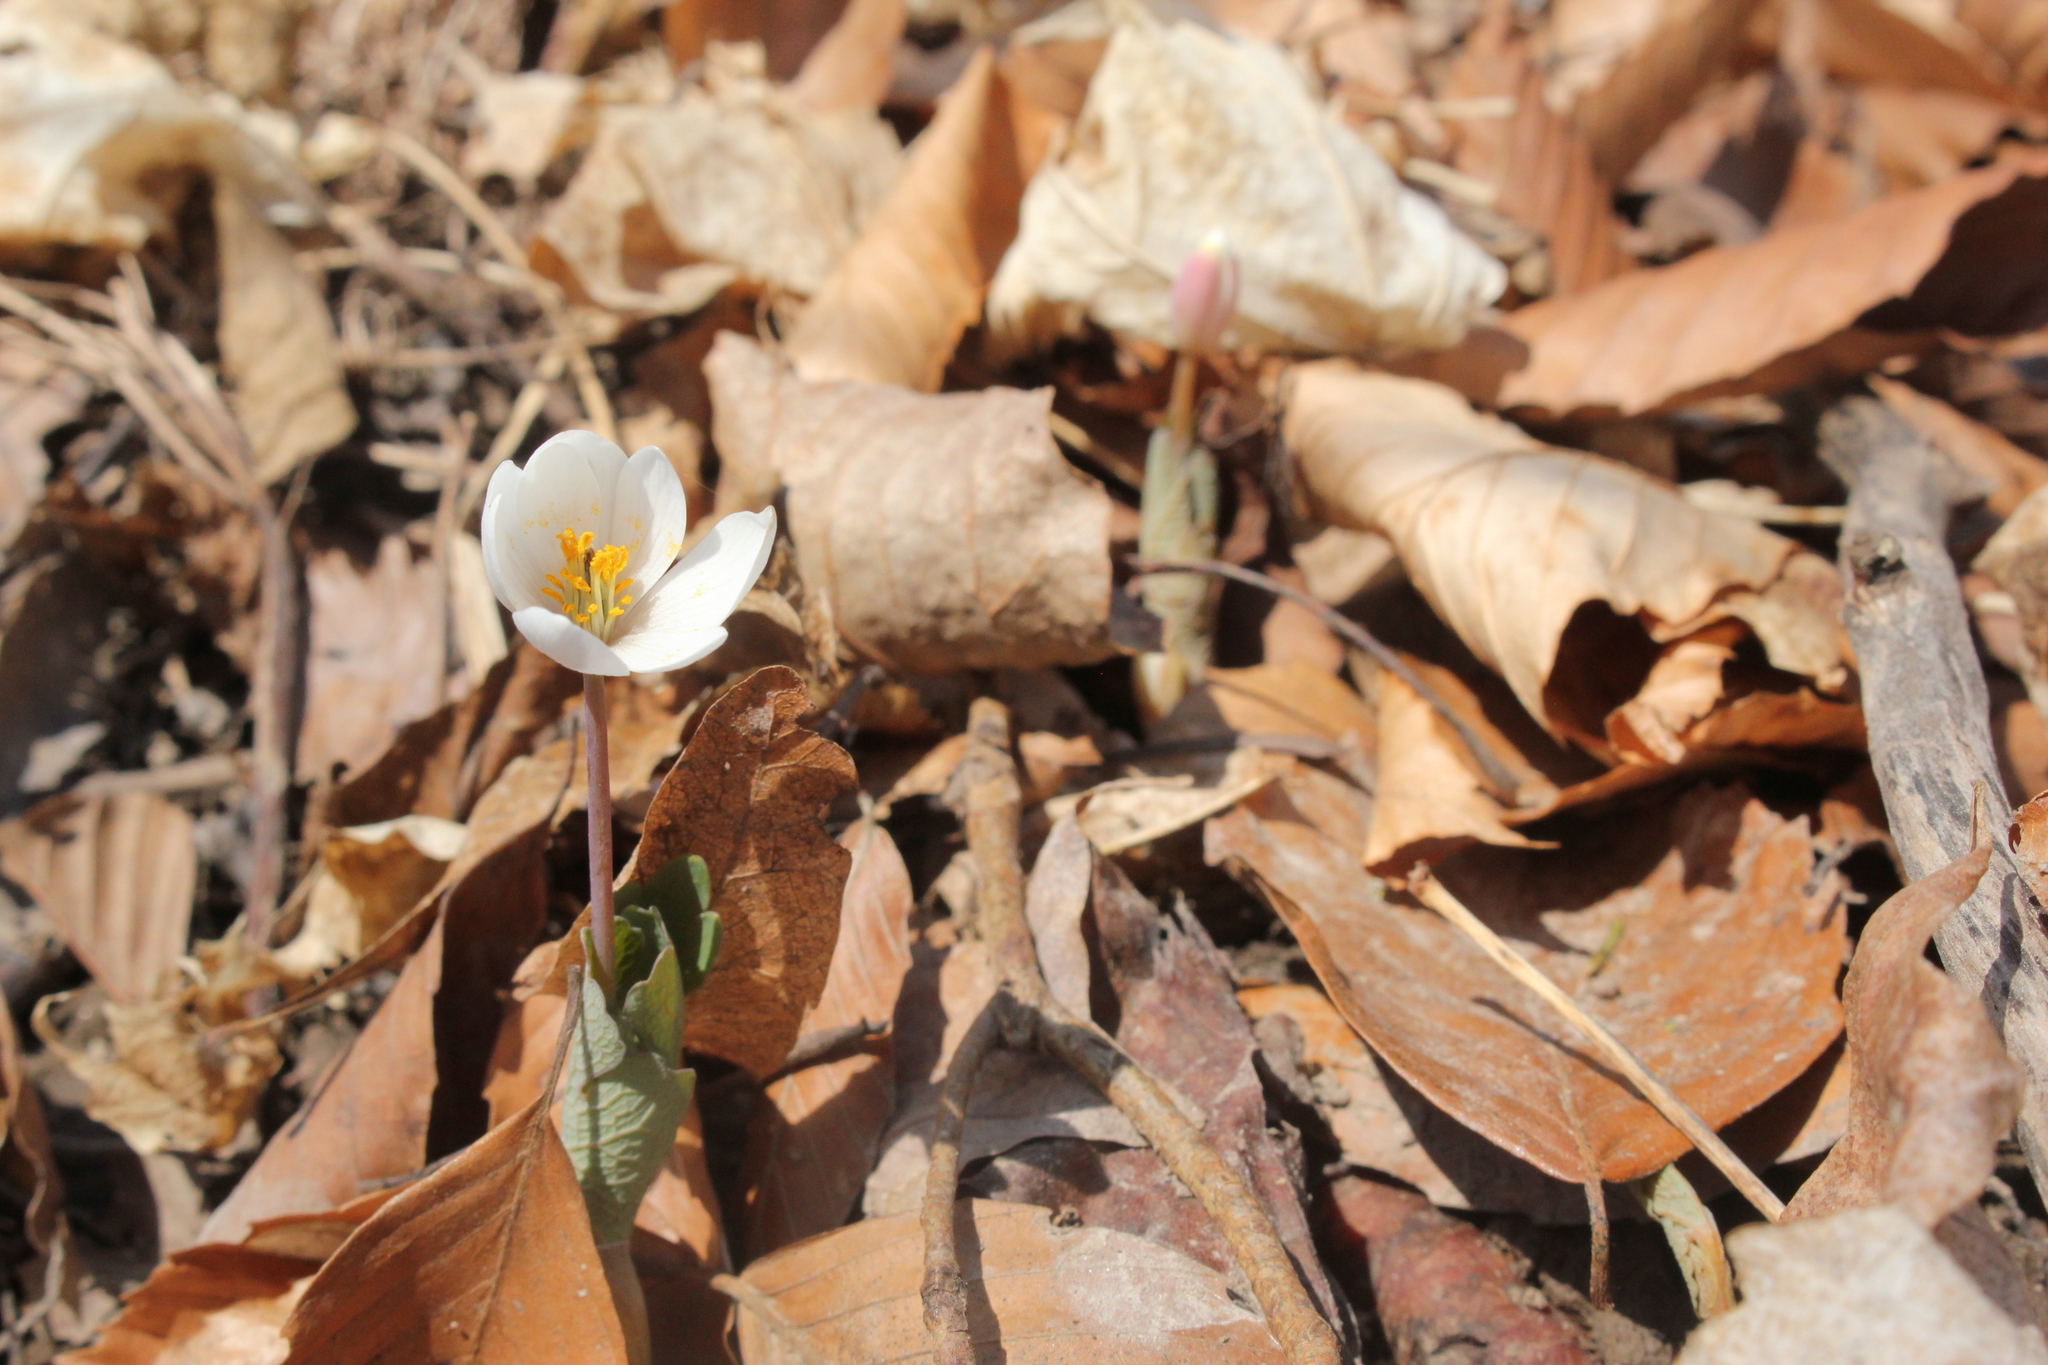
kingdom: Plantae
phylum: Tracheophyta
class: Magnoliopsida
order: Ranunculales
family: Papaveraceae
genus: Sanguinaria
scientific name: Sanguinaria canadensis
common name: Bloodroot
